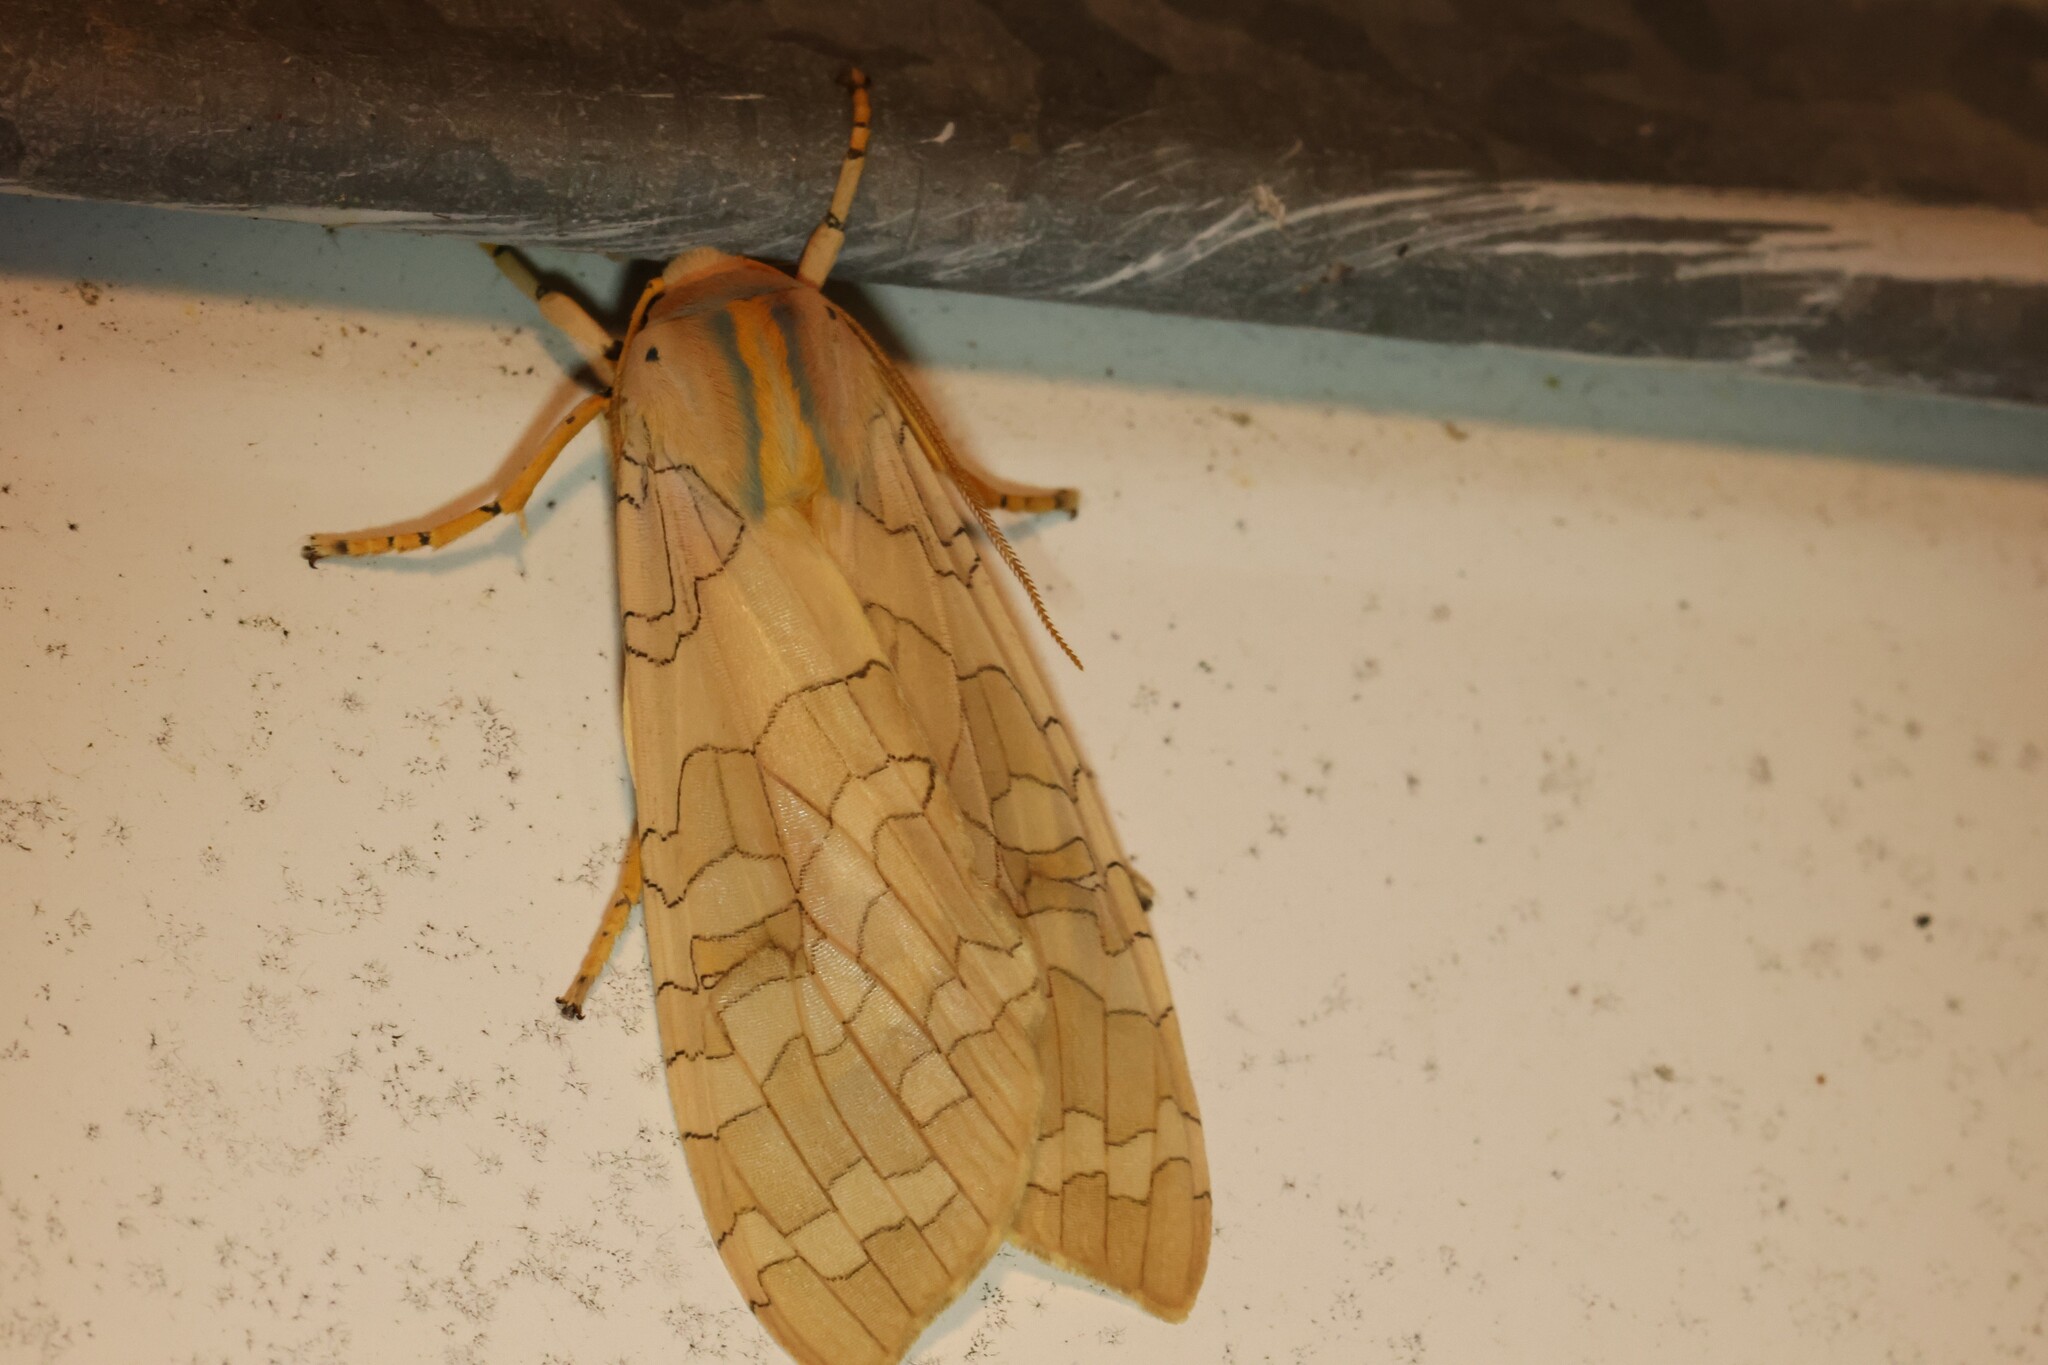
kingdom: Animalia
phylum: Arthropoda
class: Insecta
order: Lepidoptera
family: Erebidae
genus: Halysidota
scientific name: Halysidota tessellaris
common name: Banded tussock moth
